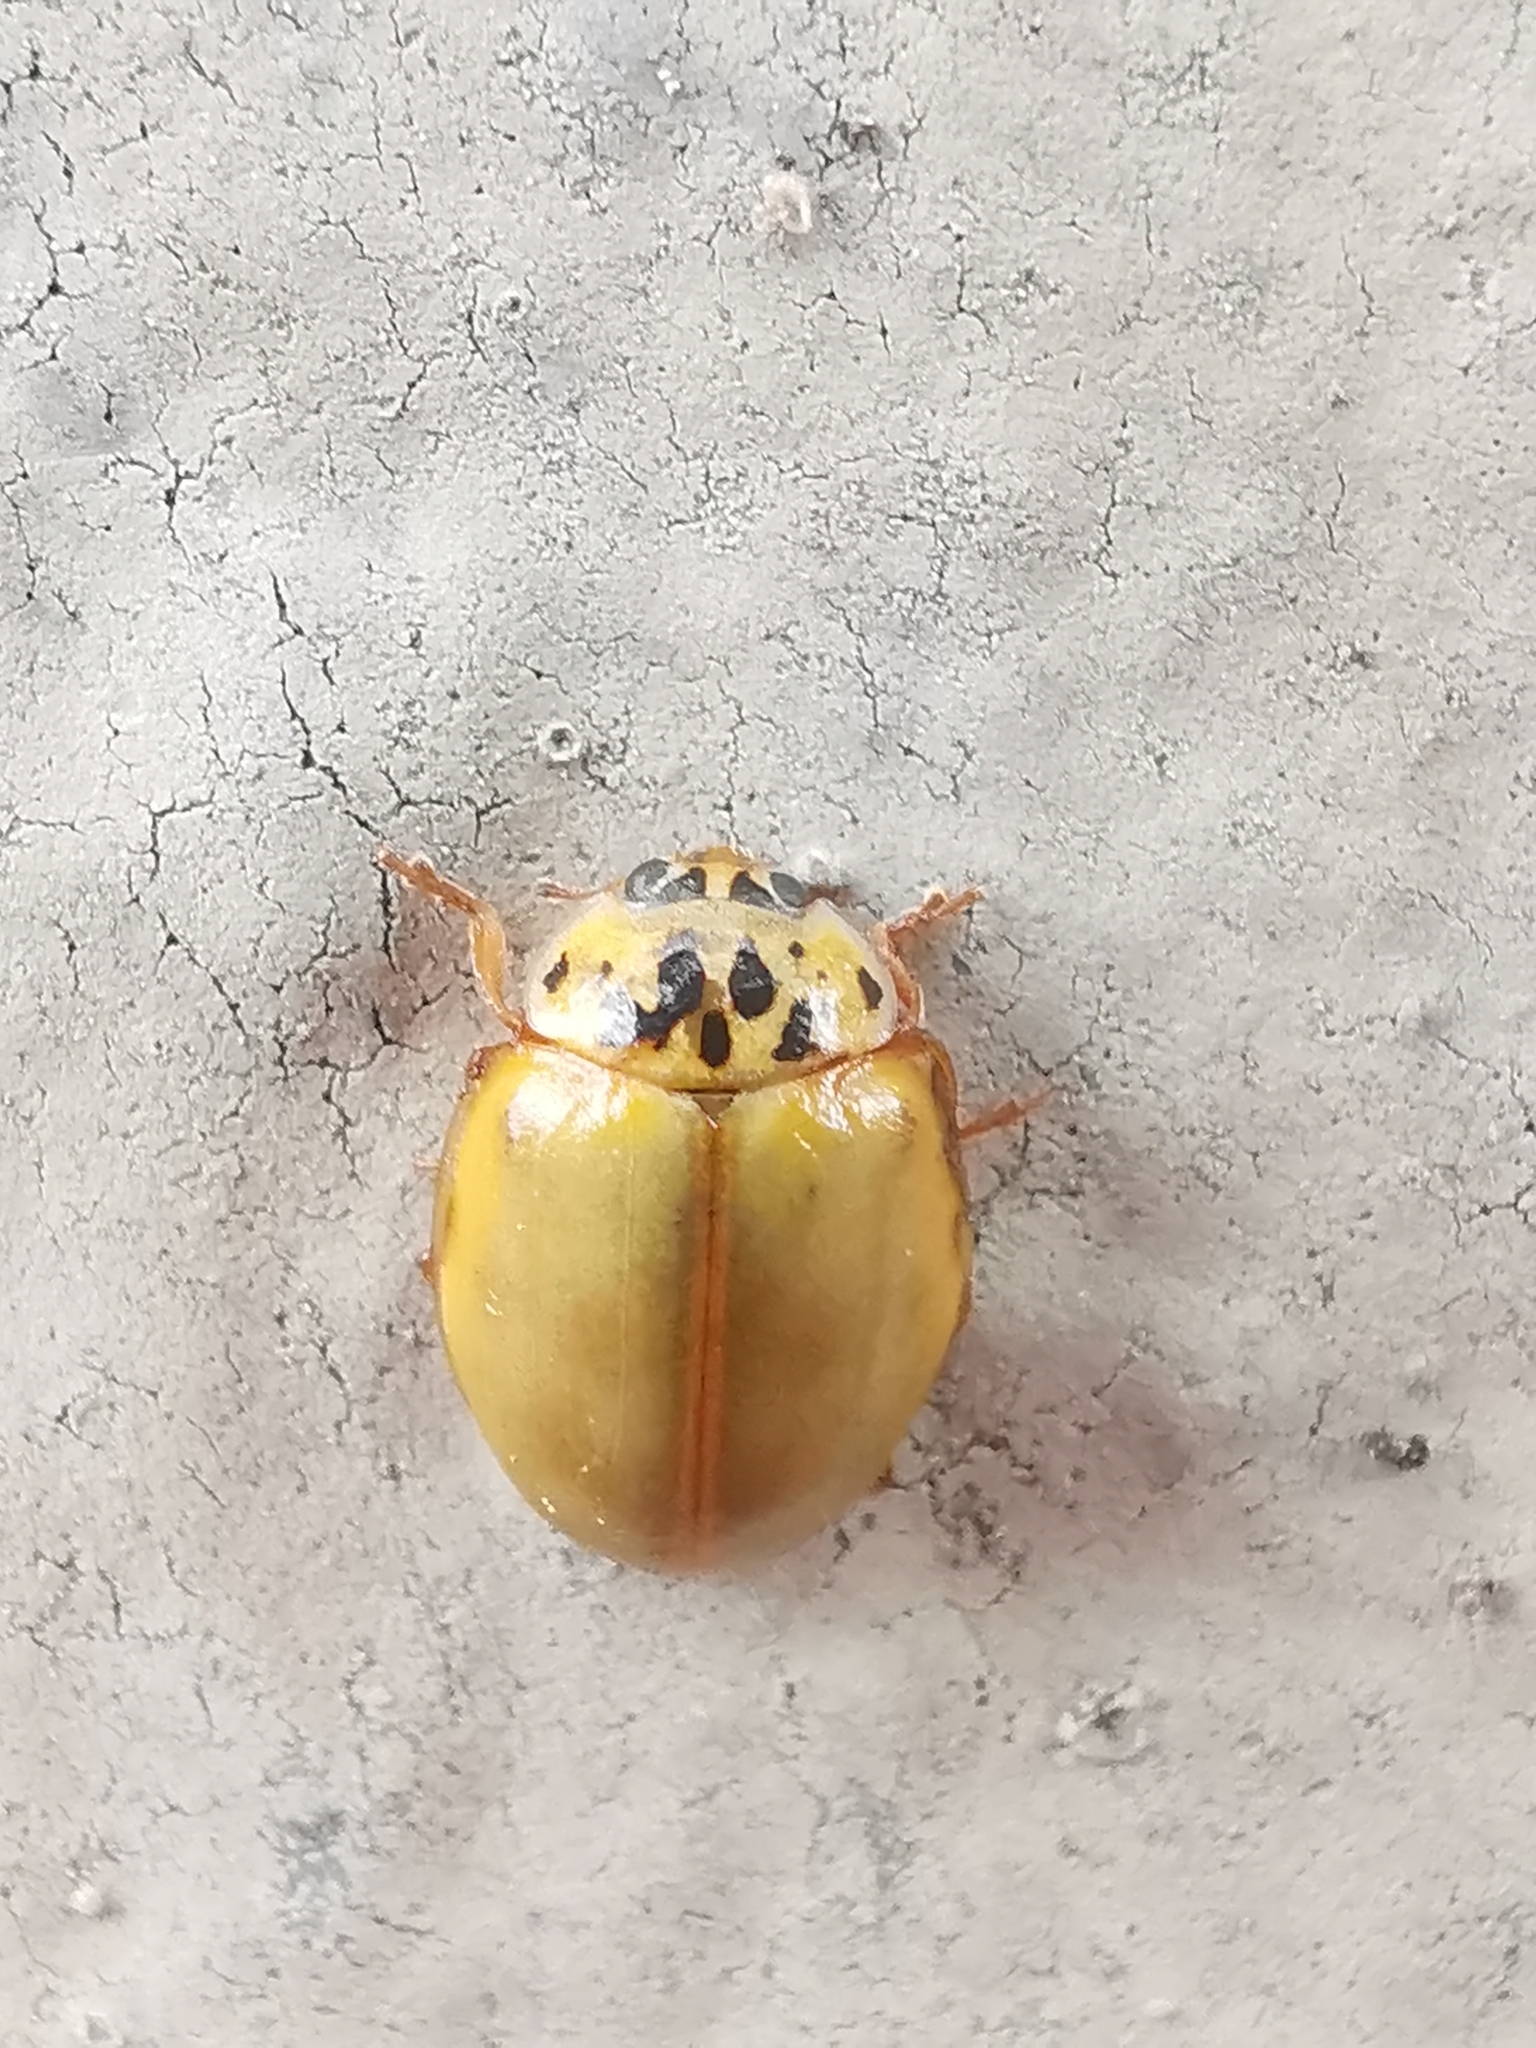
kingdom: Animalia
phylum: Arthropoda
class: Insecta
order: Coleoptera
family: Coccinellidae
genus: Harmonia
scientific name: Harmonia quadripunctata
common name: Cream-streaked ladybird
